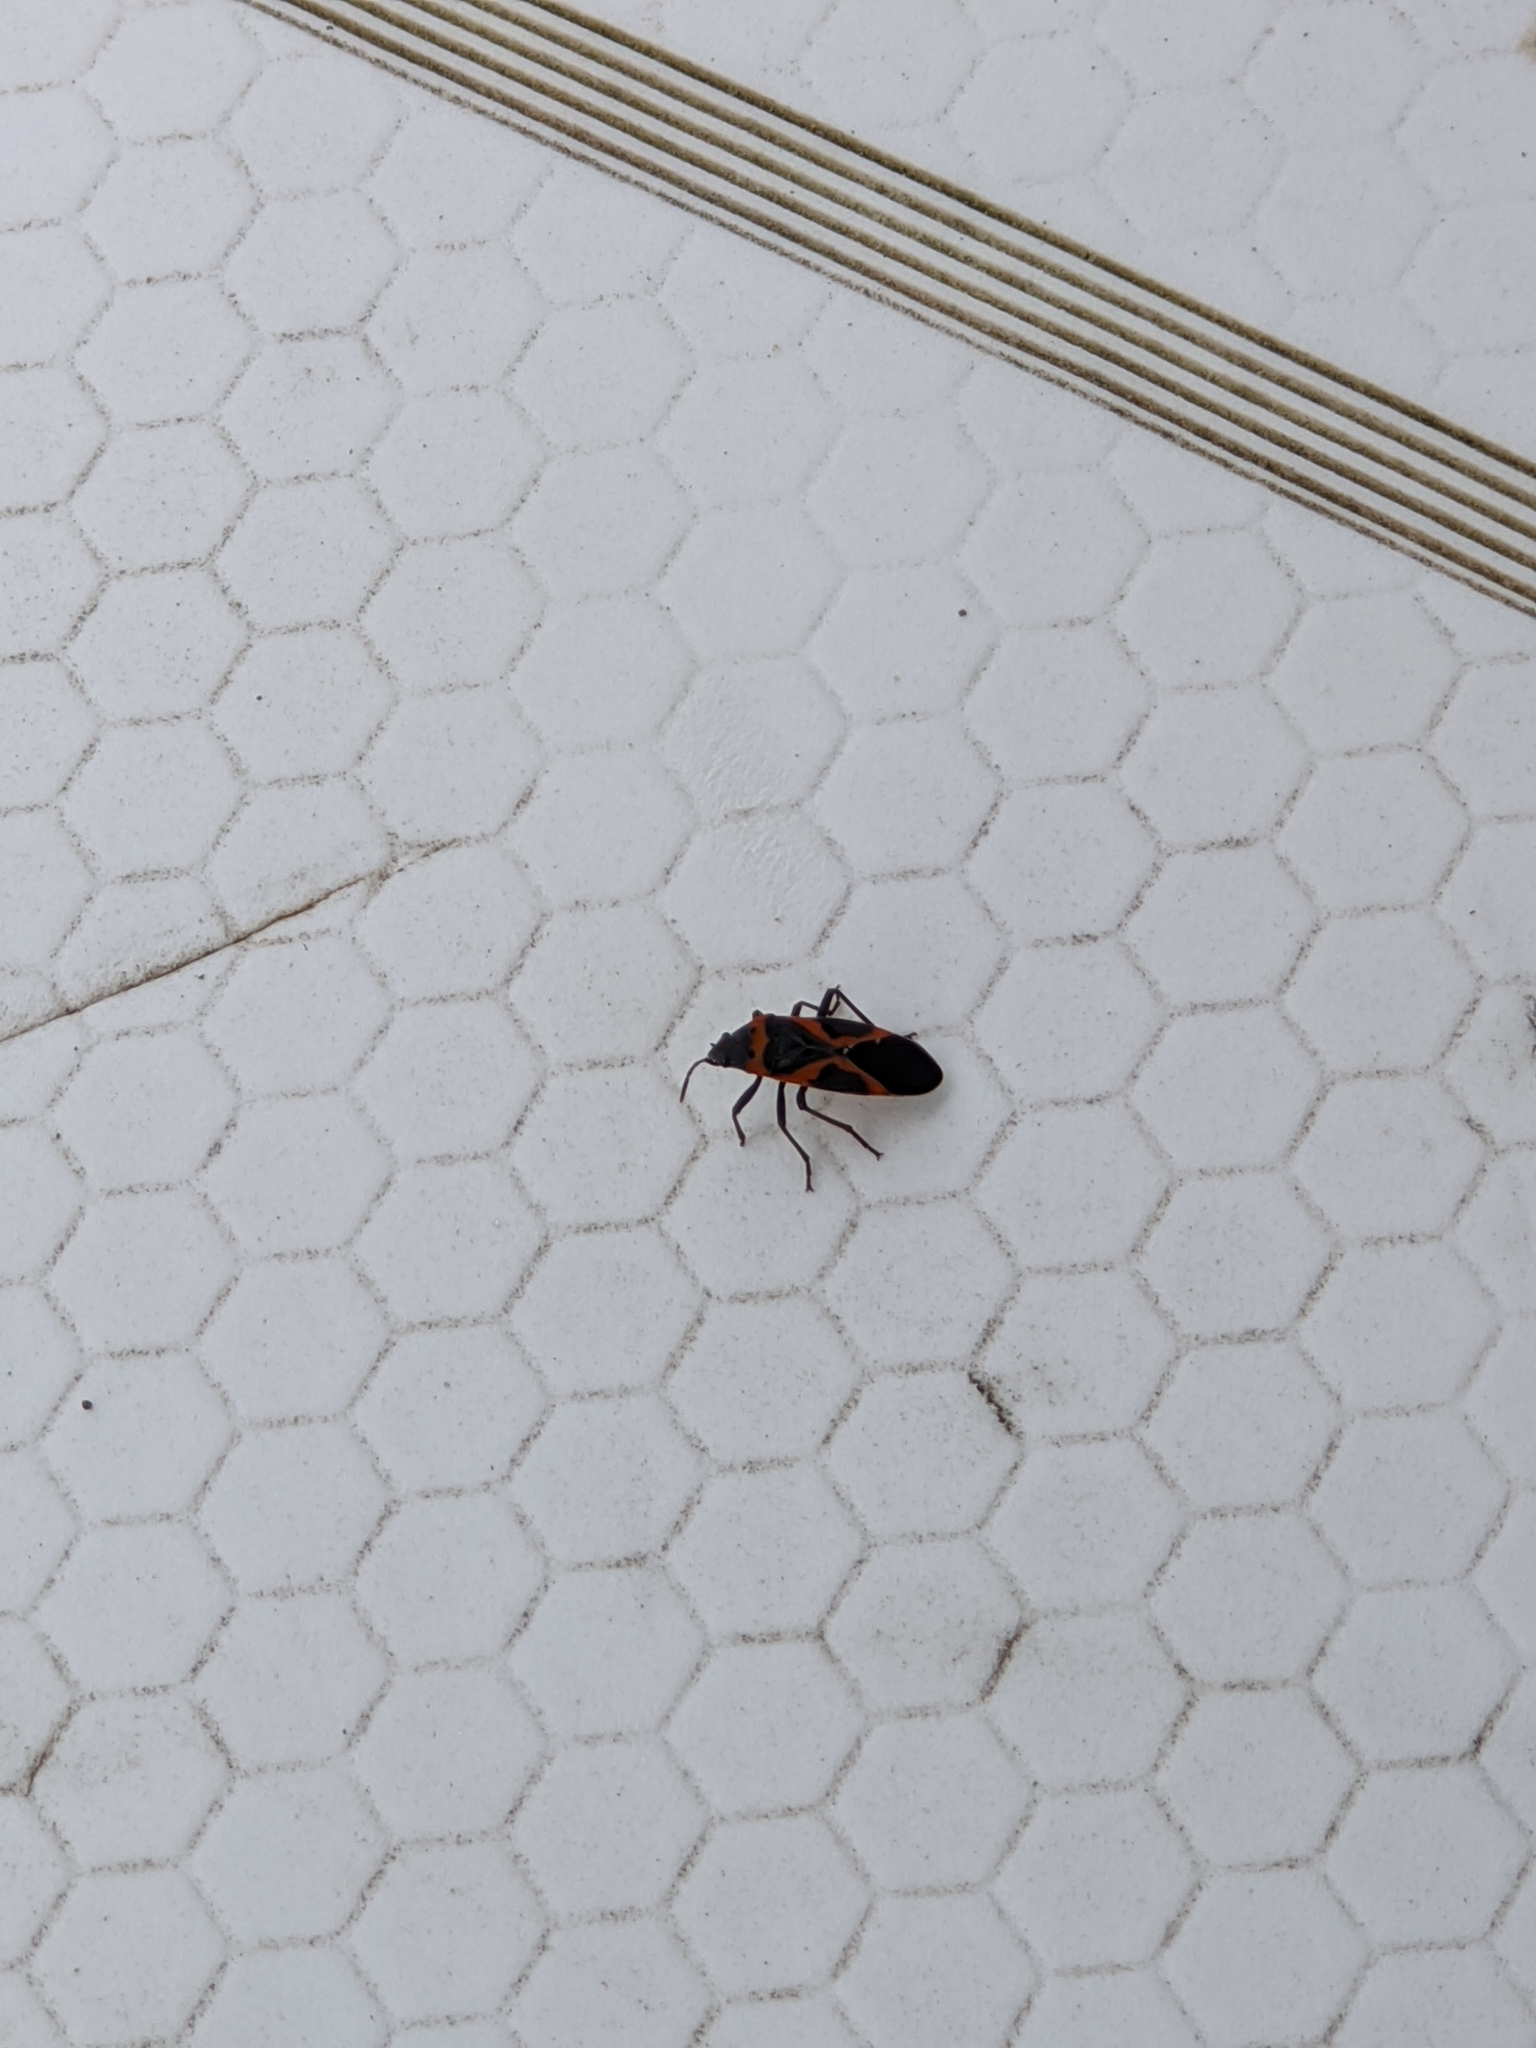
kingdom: Animalia
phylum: Arthropoda
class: Insecta
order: Hemiptera
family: Lygaeidae
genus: Lygaeus
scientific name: Lygaeus kalmii
